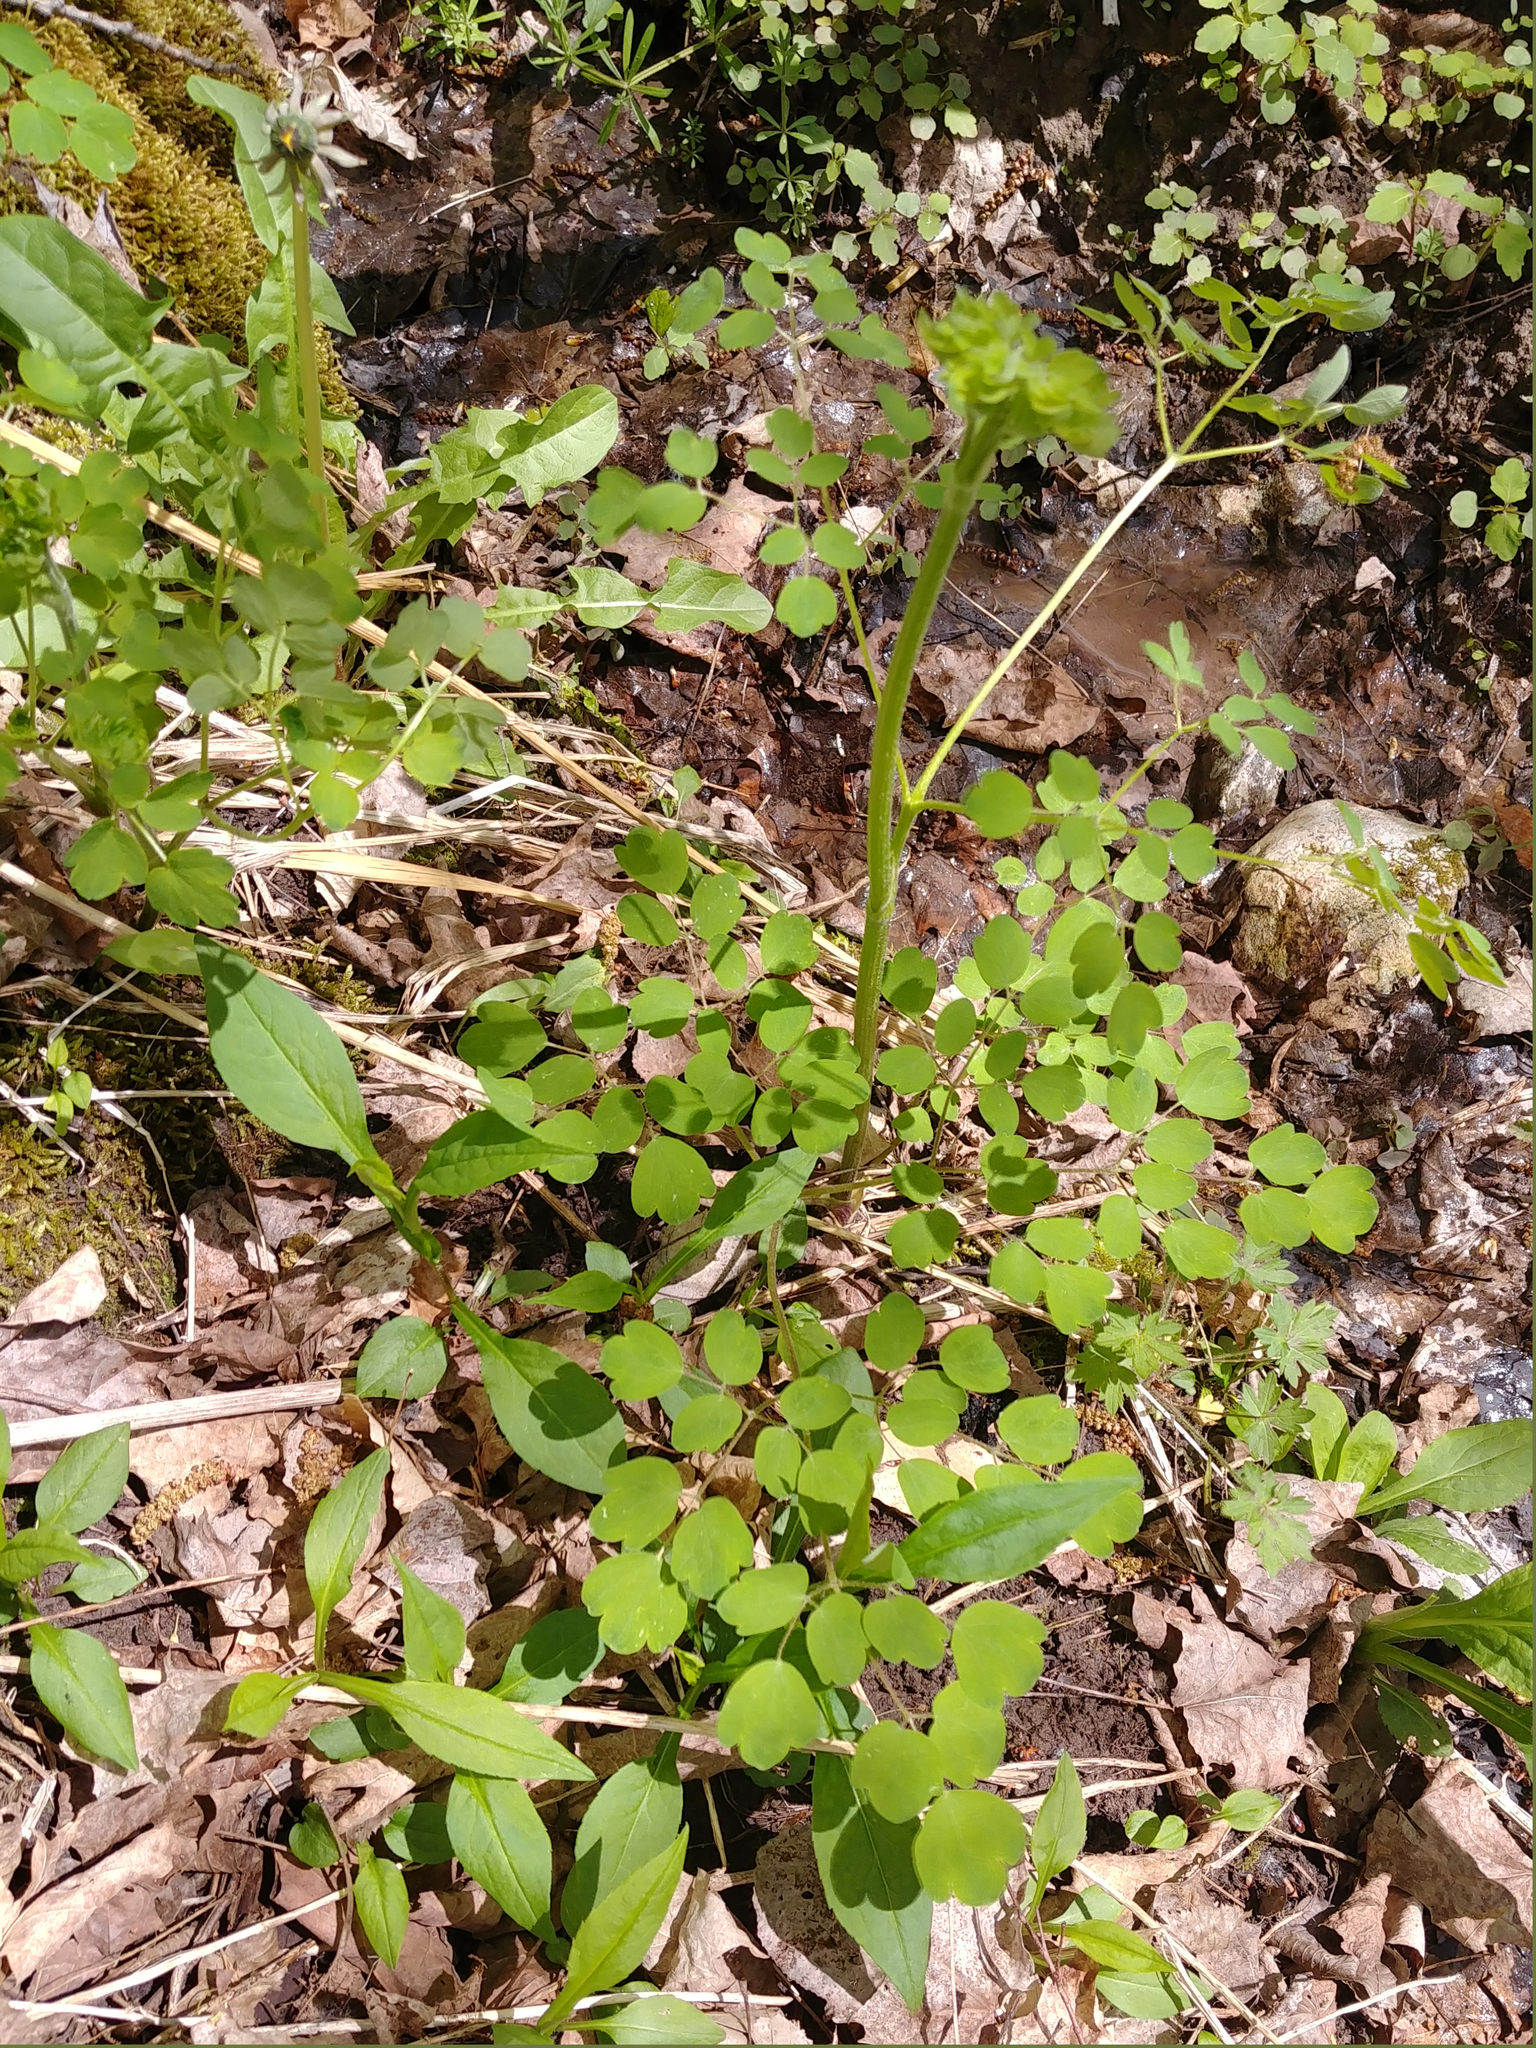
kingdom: Plantae
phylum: Tracheophyta
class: Magnoliopsida
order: Ranunculales
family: Ranunculaceae
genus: Thalictrum
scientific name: Thalictrum dioicum
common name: Early meadow-rue
